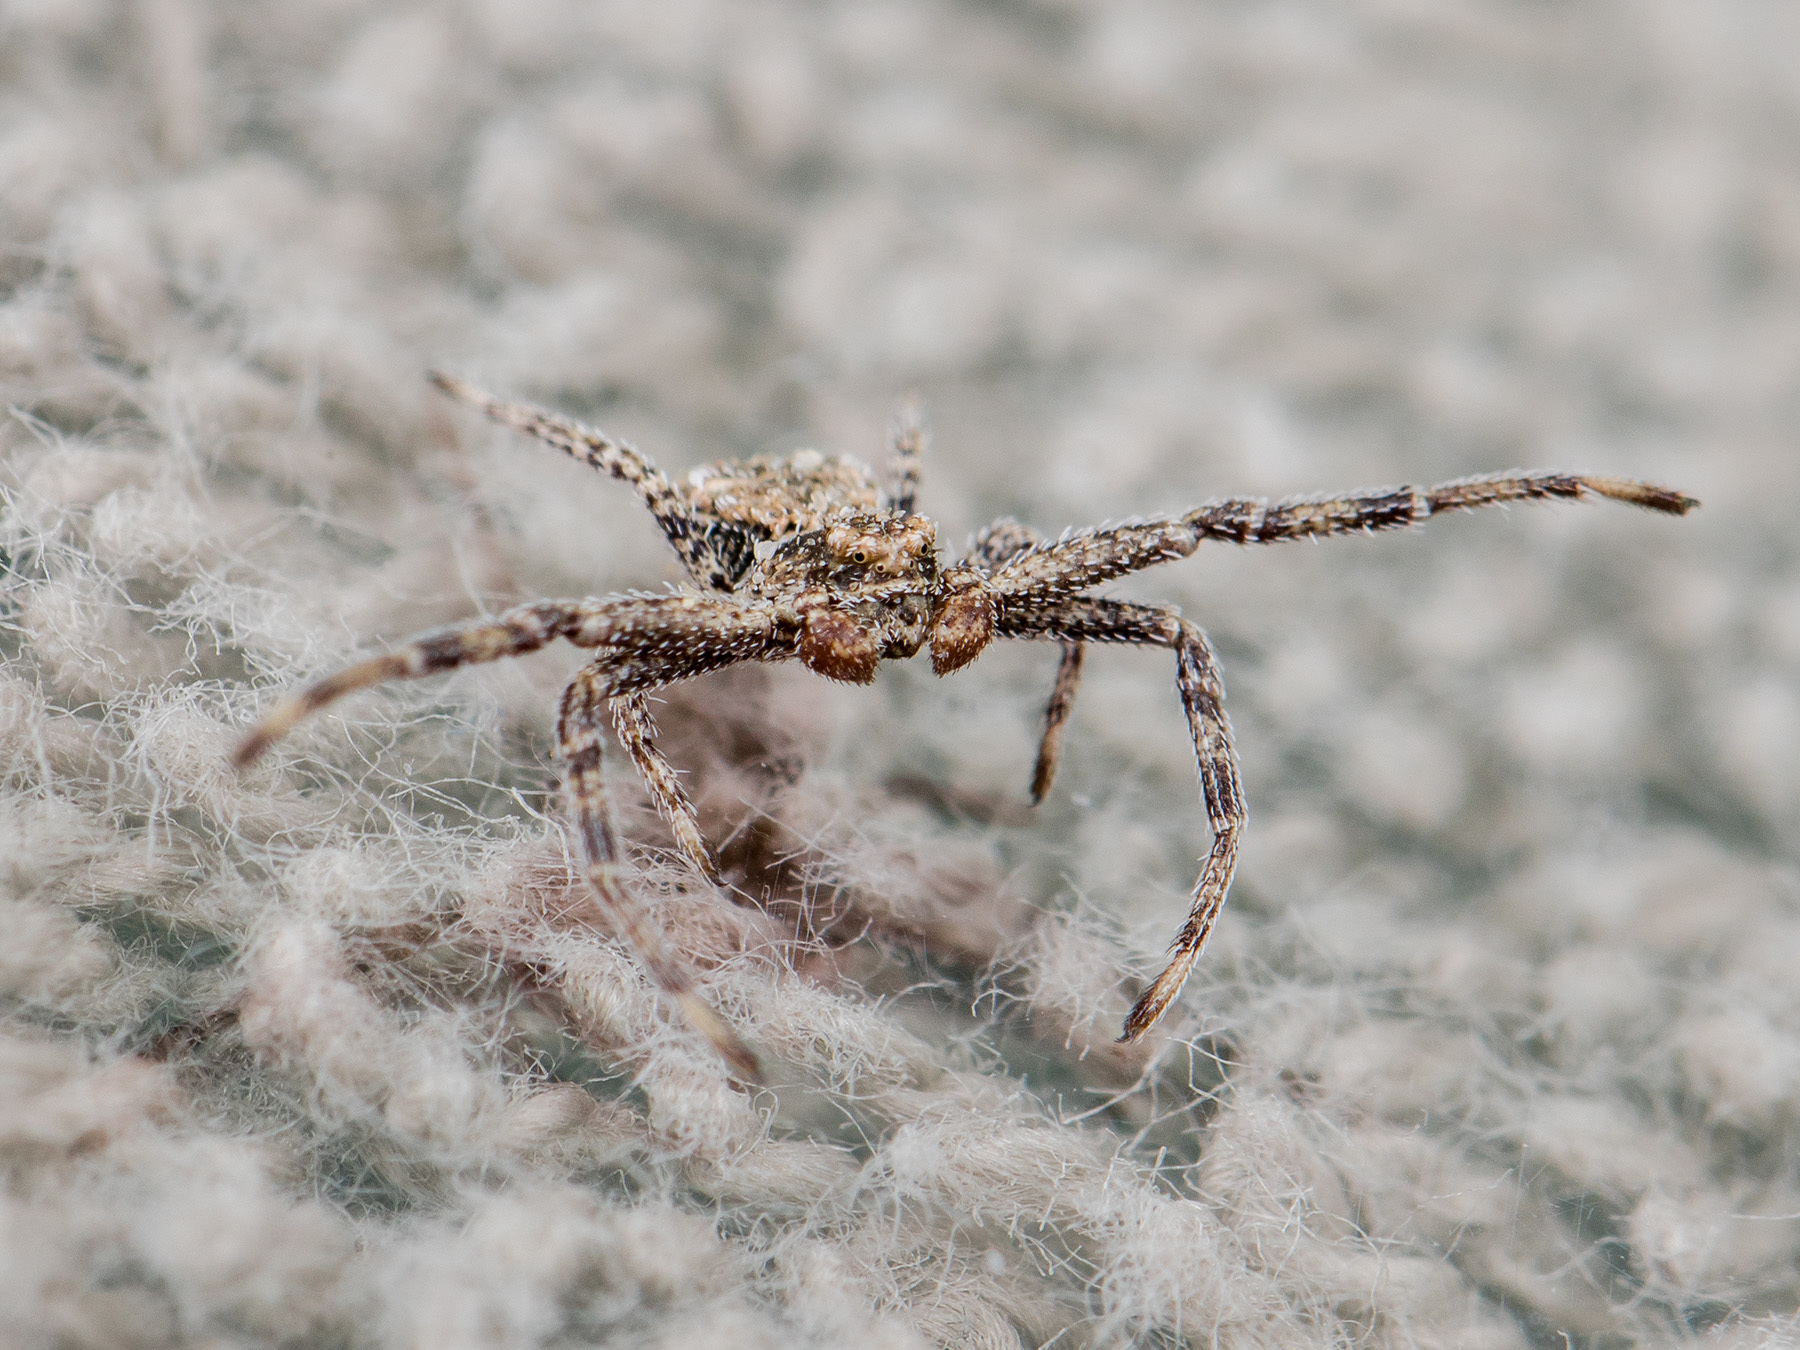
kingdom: Animalia
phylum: Arthropoda
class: Arachnida
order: Araneae
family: Thomisidae
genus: Ozyptila
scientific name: Ozyptila lugubris
